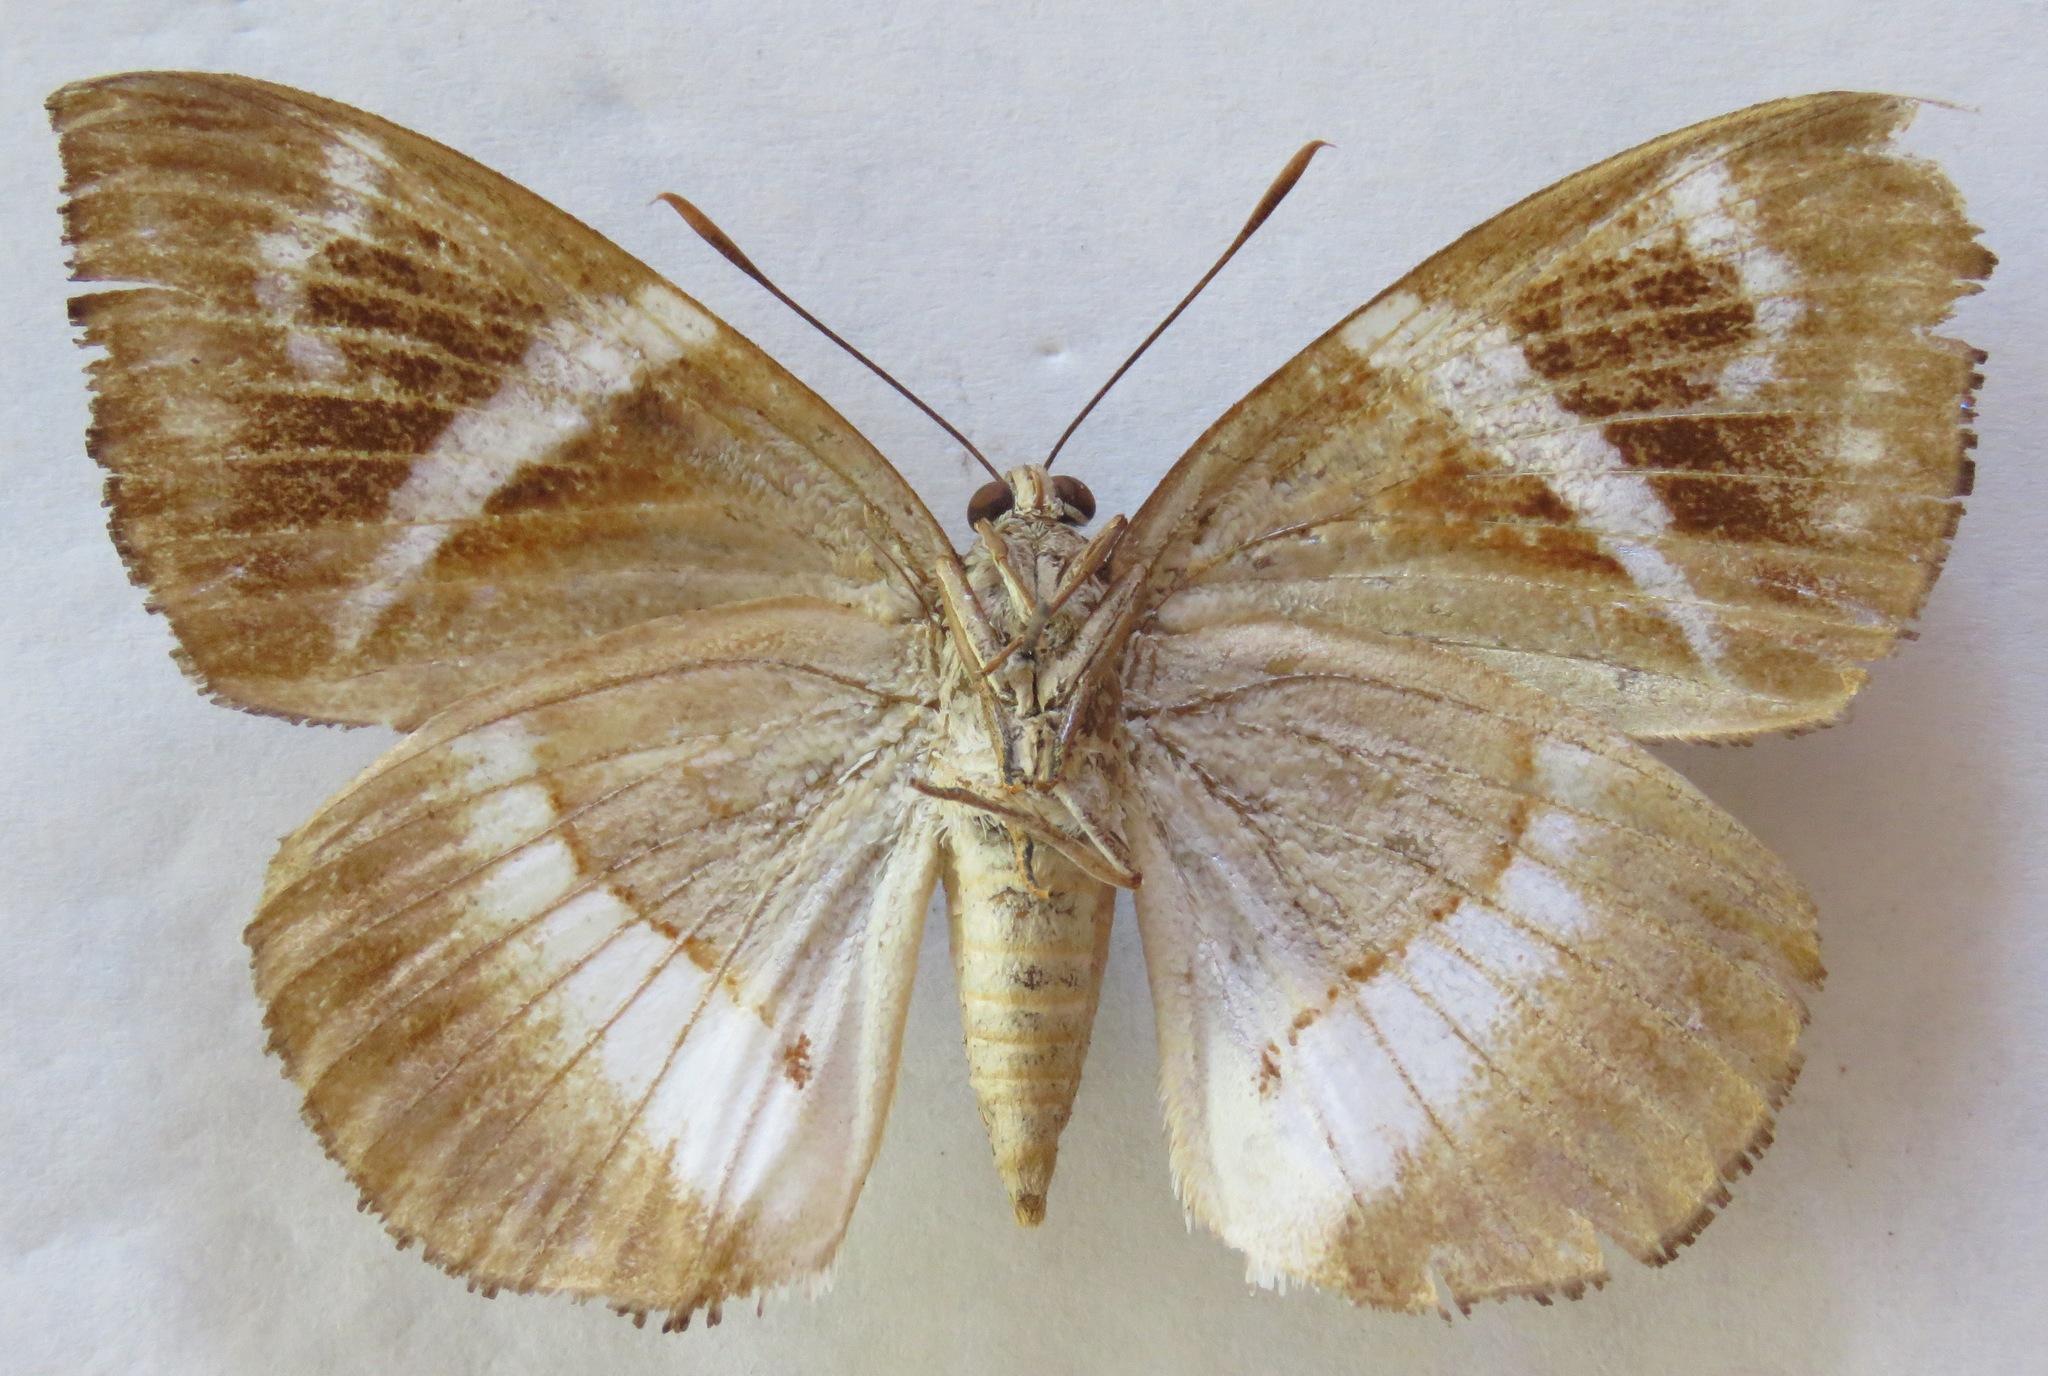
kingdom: Animalia
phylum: Arthropoda
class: Insecta
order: Lepidoptera
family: Castniidae
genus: Castniomera
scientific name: Castniomera atymnius
